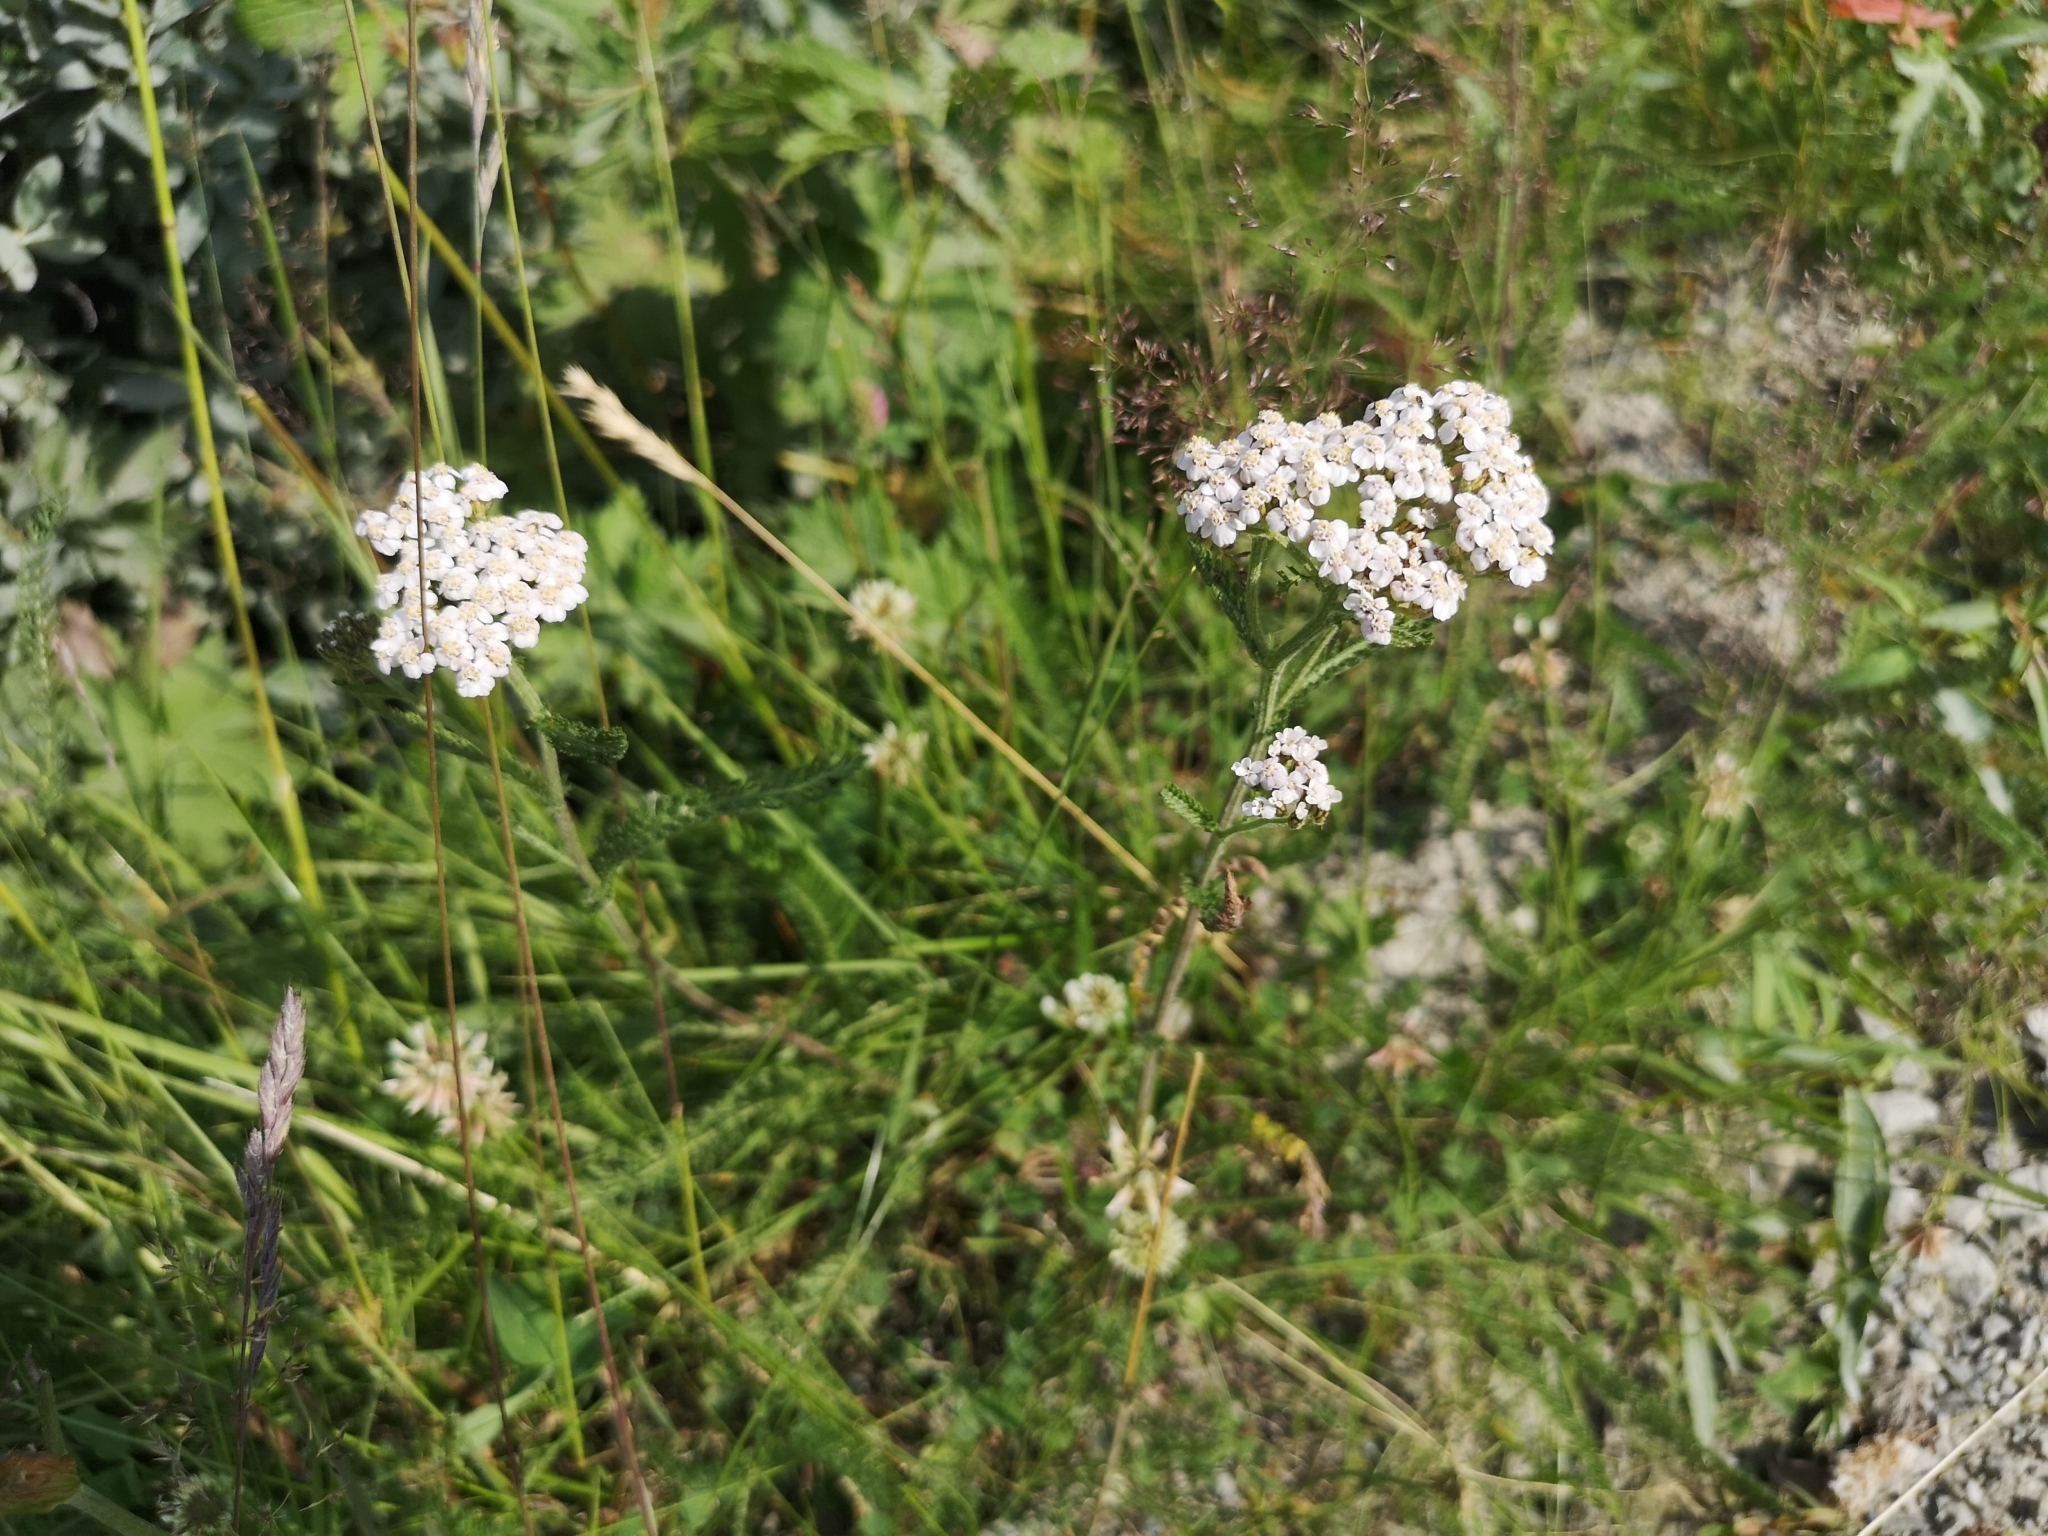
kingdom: Plantae
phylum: Tracheophyta
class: Magnoliopsida
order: Asterales
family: Asteraceae
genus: Achillea
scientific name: Achillea millefolium
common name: Yarrow
